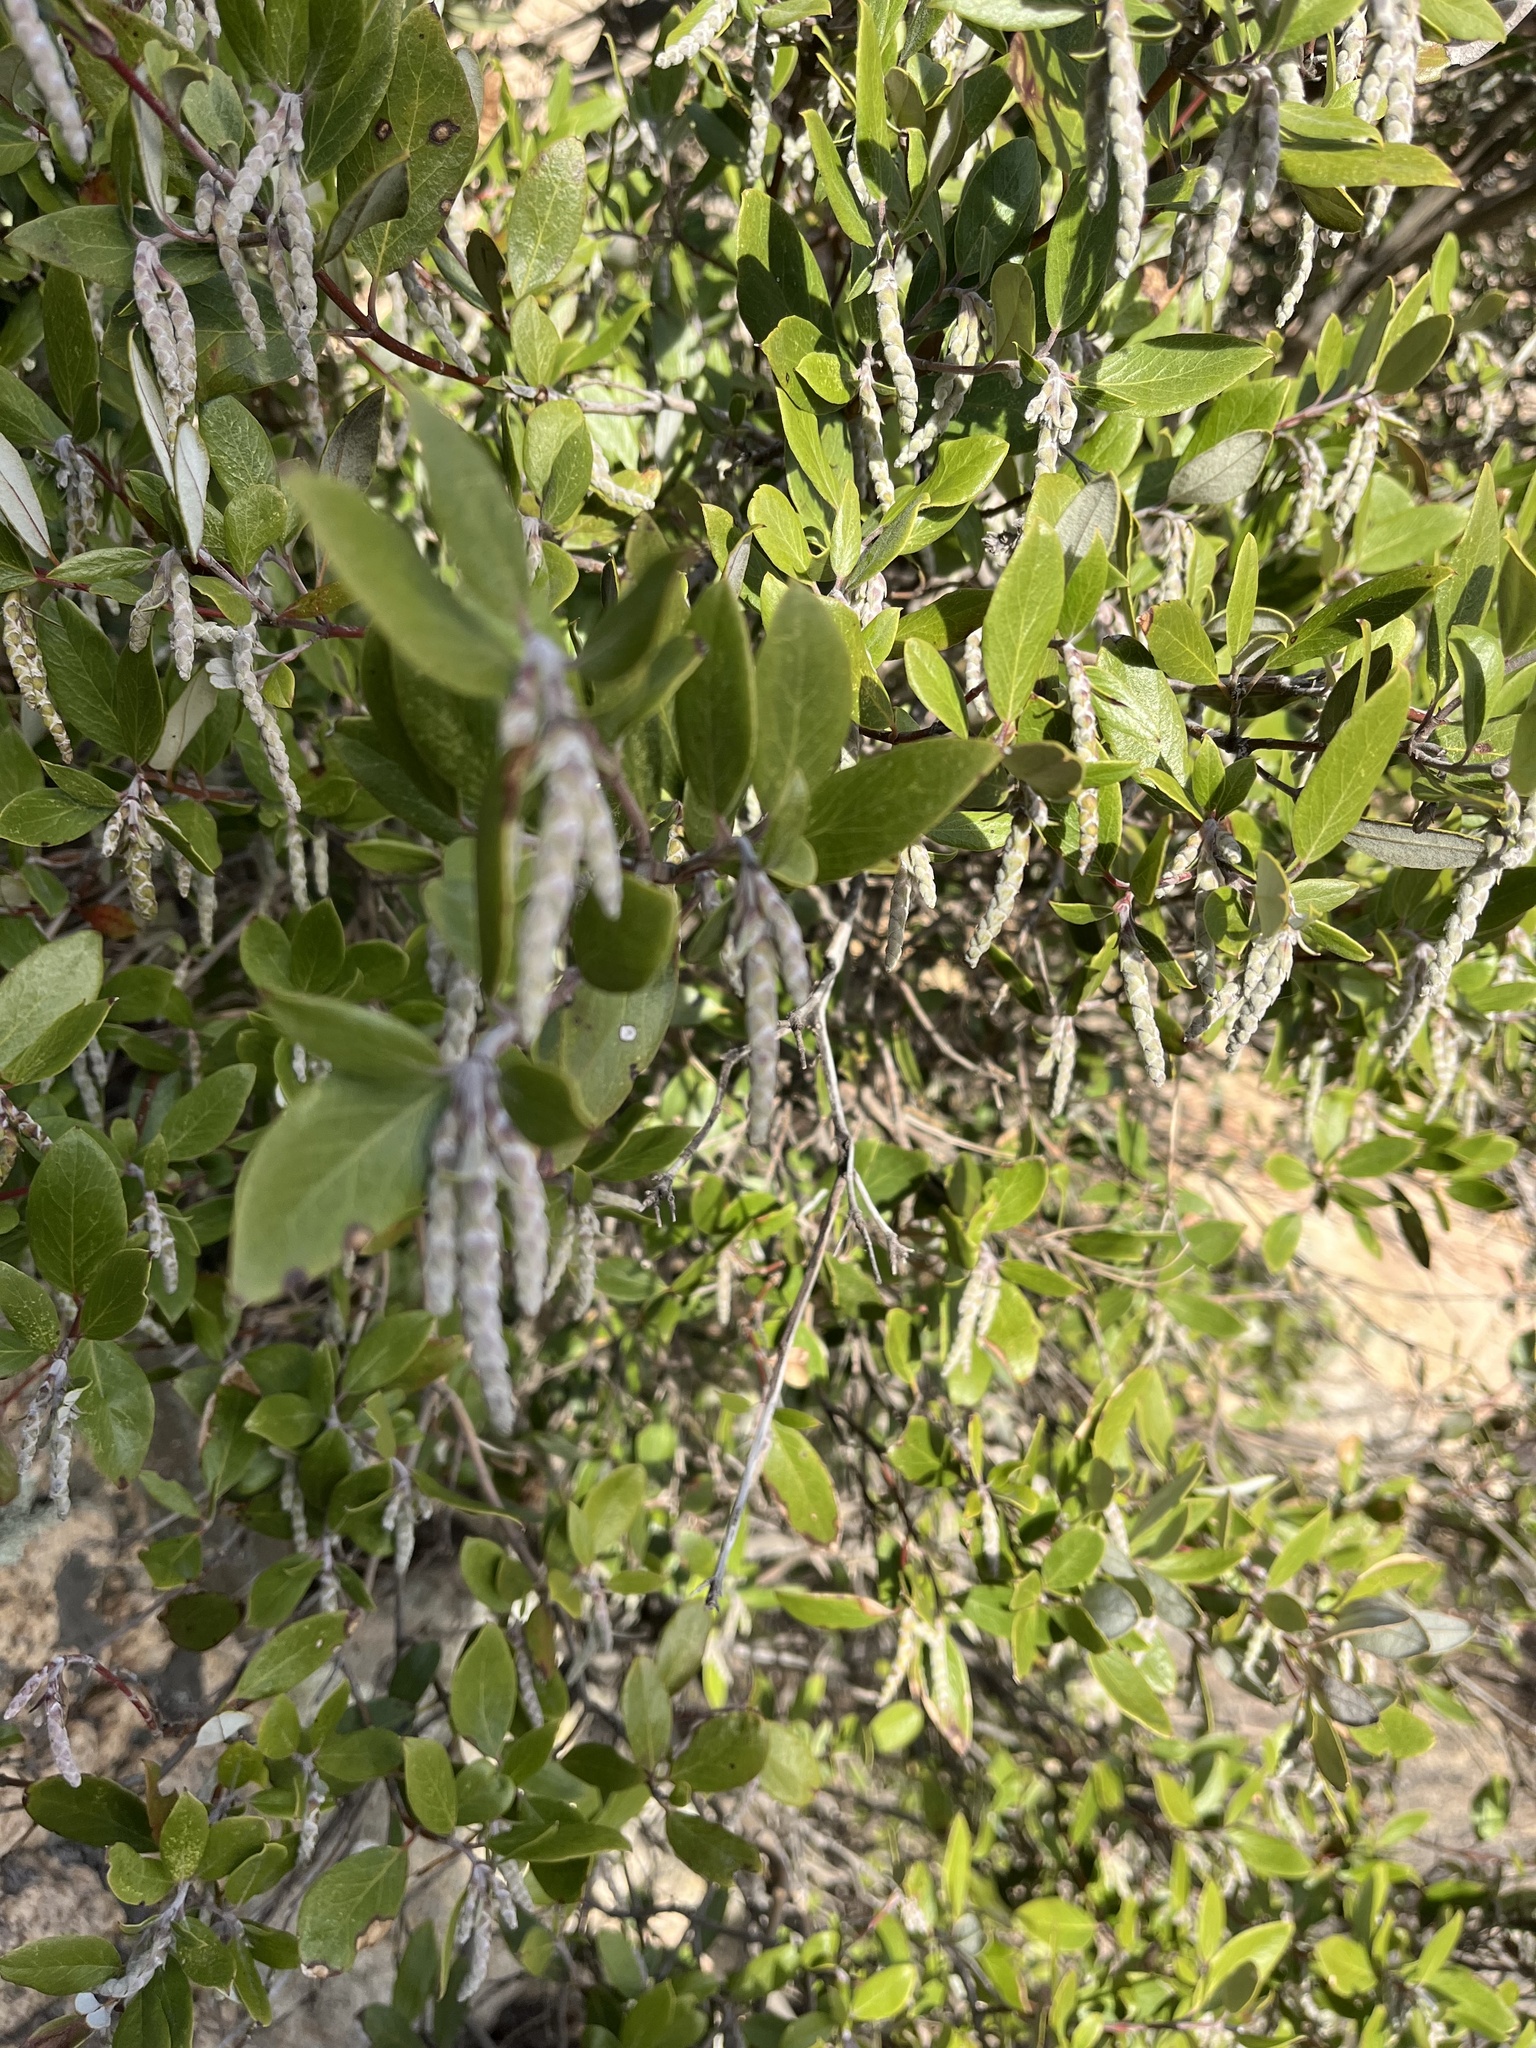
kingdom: Plantae
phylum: Tracheophyta
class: Magnoliopsida
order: Garryales
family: Garryaceae
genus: Garrya
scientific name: Garrya veatchii
